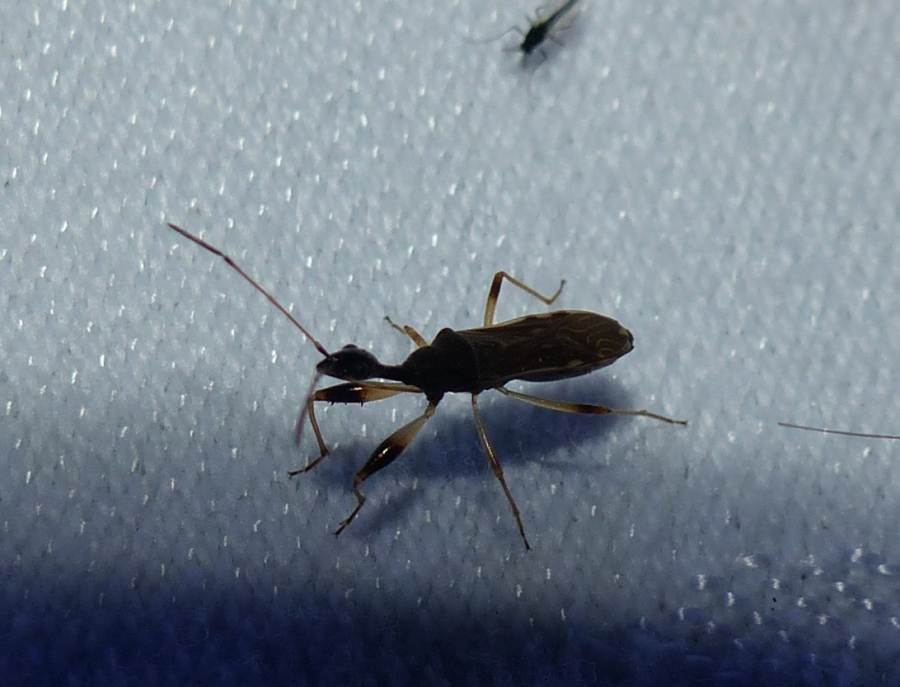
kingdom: Animalia
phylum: Arthropoda
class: Insecta
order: Hemiptera
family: Rhyparochromidae
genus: Myodocha
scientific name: Myodocha serripes
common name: Long-necked seed bug
